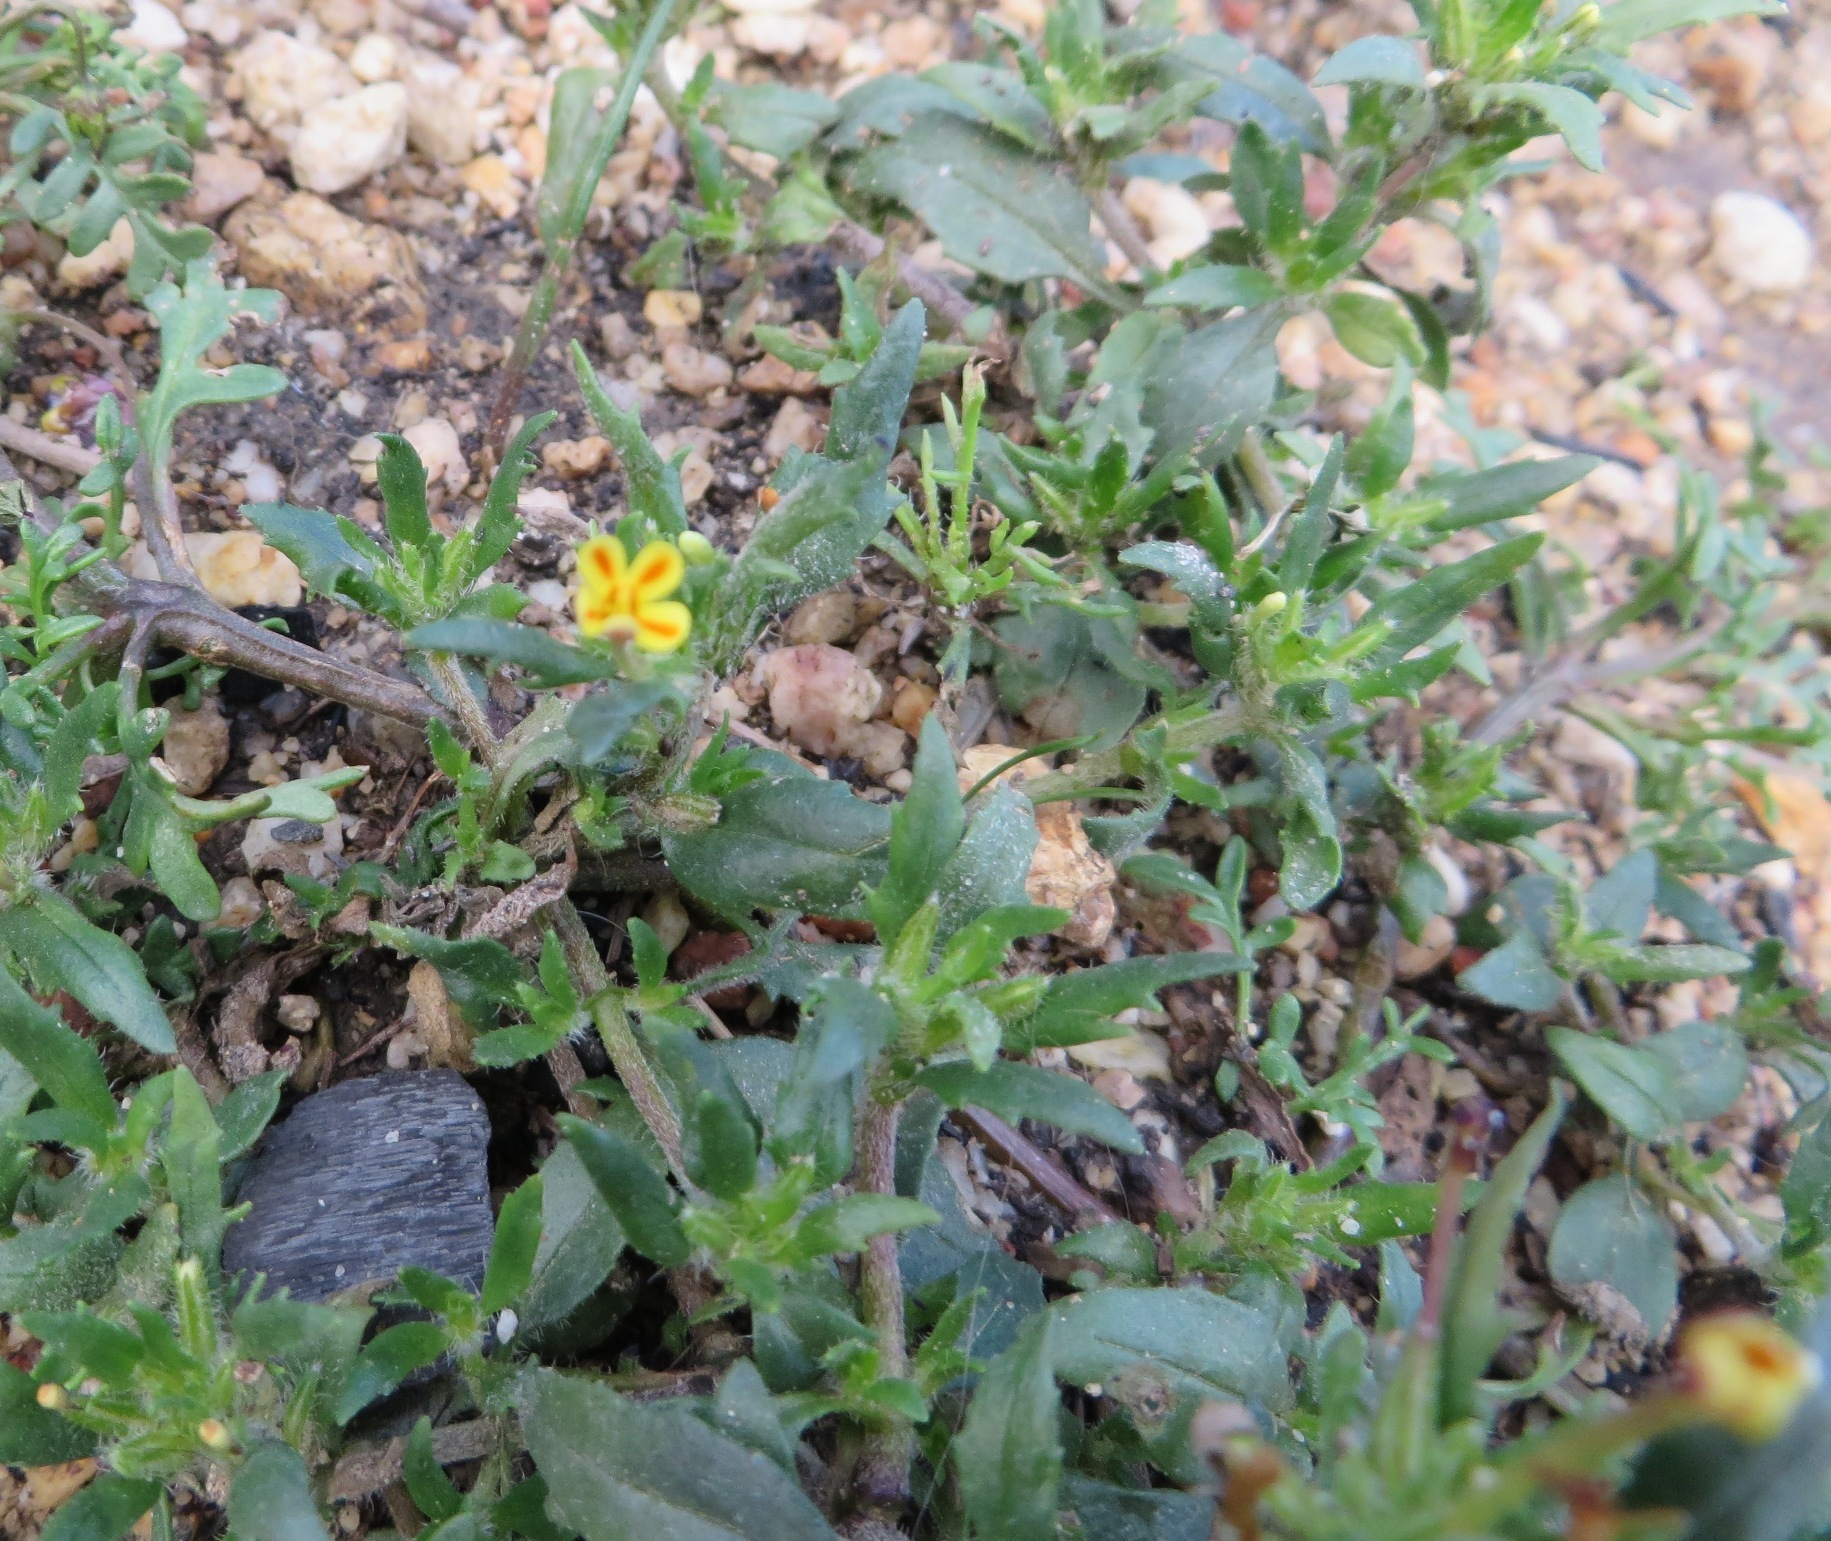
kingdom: Plantae
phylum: Tracheophyta
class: Magnoliopsida
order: Lamiales
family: Scrophulariaceae
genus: Zaluzianskya
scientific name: Zaluzianskya divaricata
